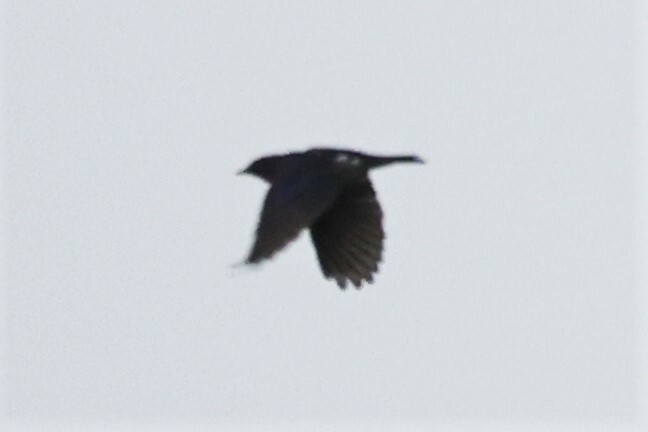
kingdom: Animalia
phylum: Chordata
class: Aves
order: Passeriformes
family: Sturnidae
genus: Cinnyricinclus
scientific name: Cinnyricinclus leucogaster
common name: Violet-backed starling
